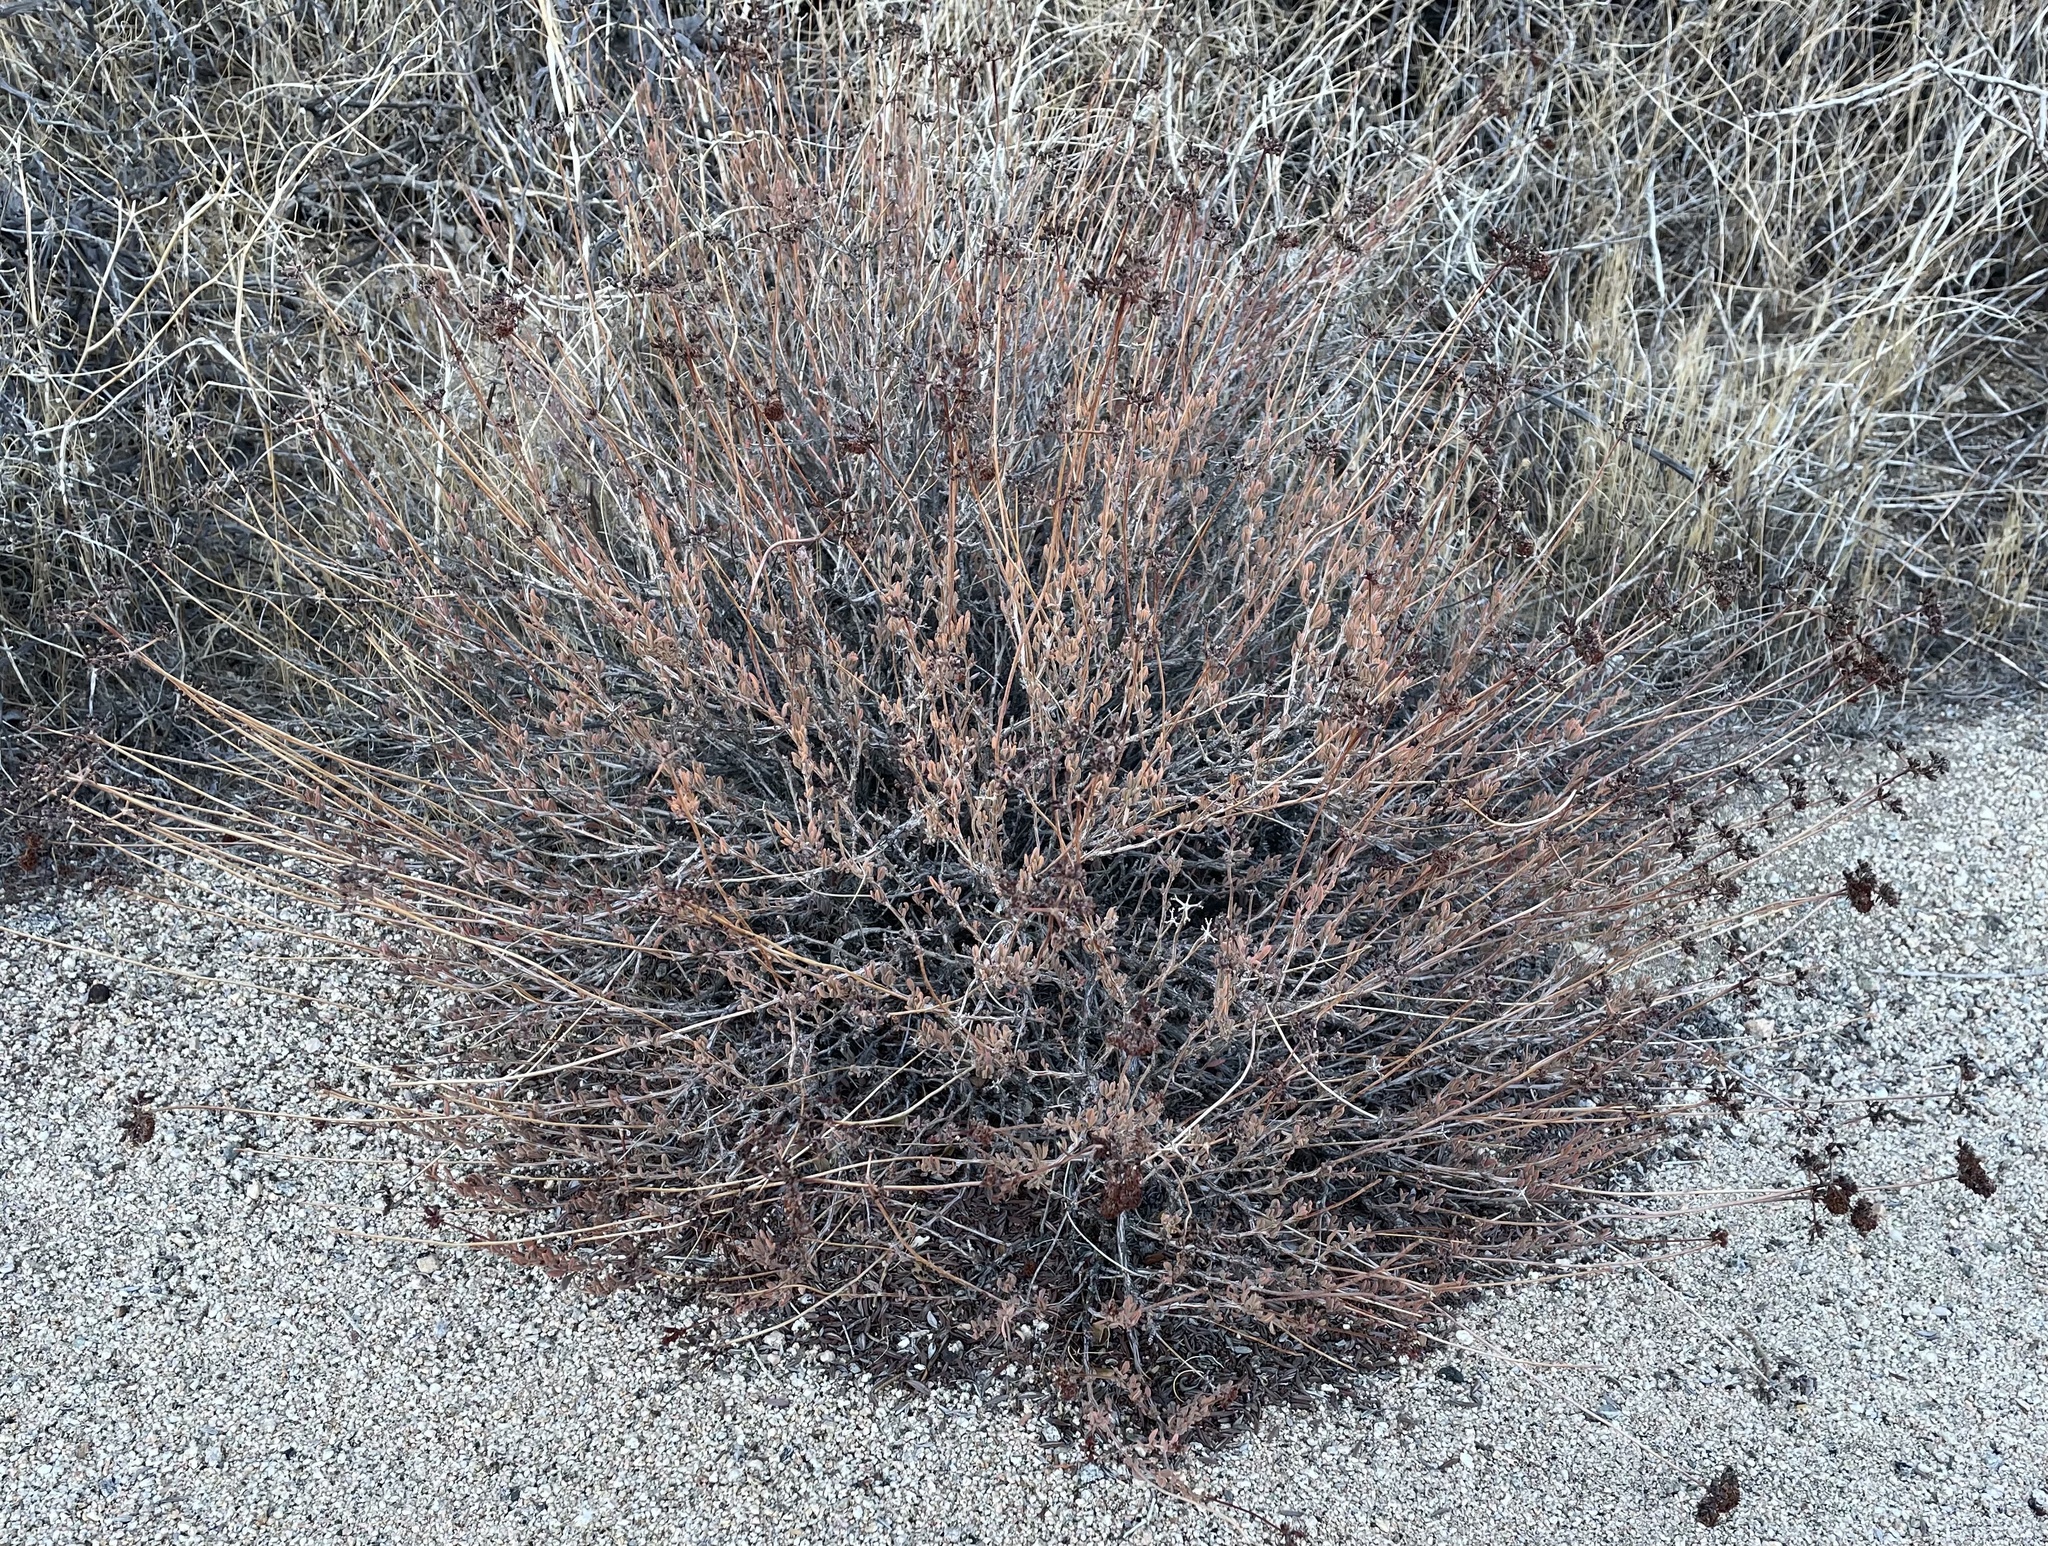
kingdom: Plantae
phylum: Tracheophyta
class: Magnoliopsida
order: Caryophyllales
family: Polygonaceae
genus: Eriogonum
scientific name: Eriogonum fasciculatum
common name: California wild buckwheat
